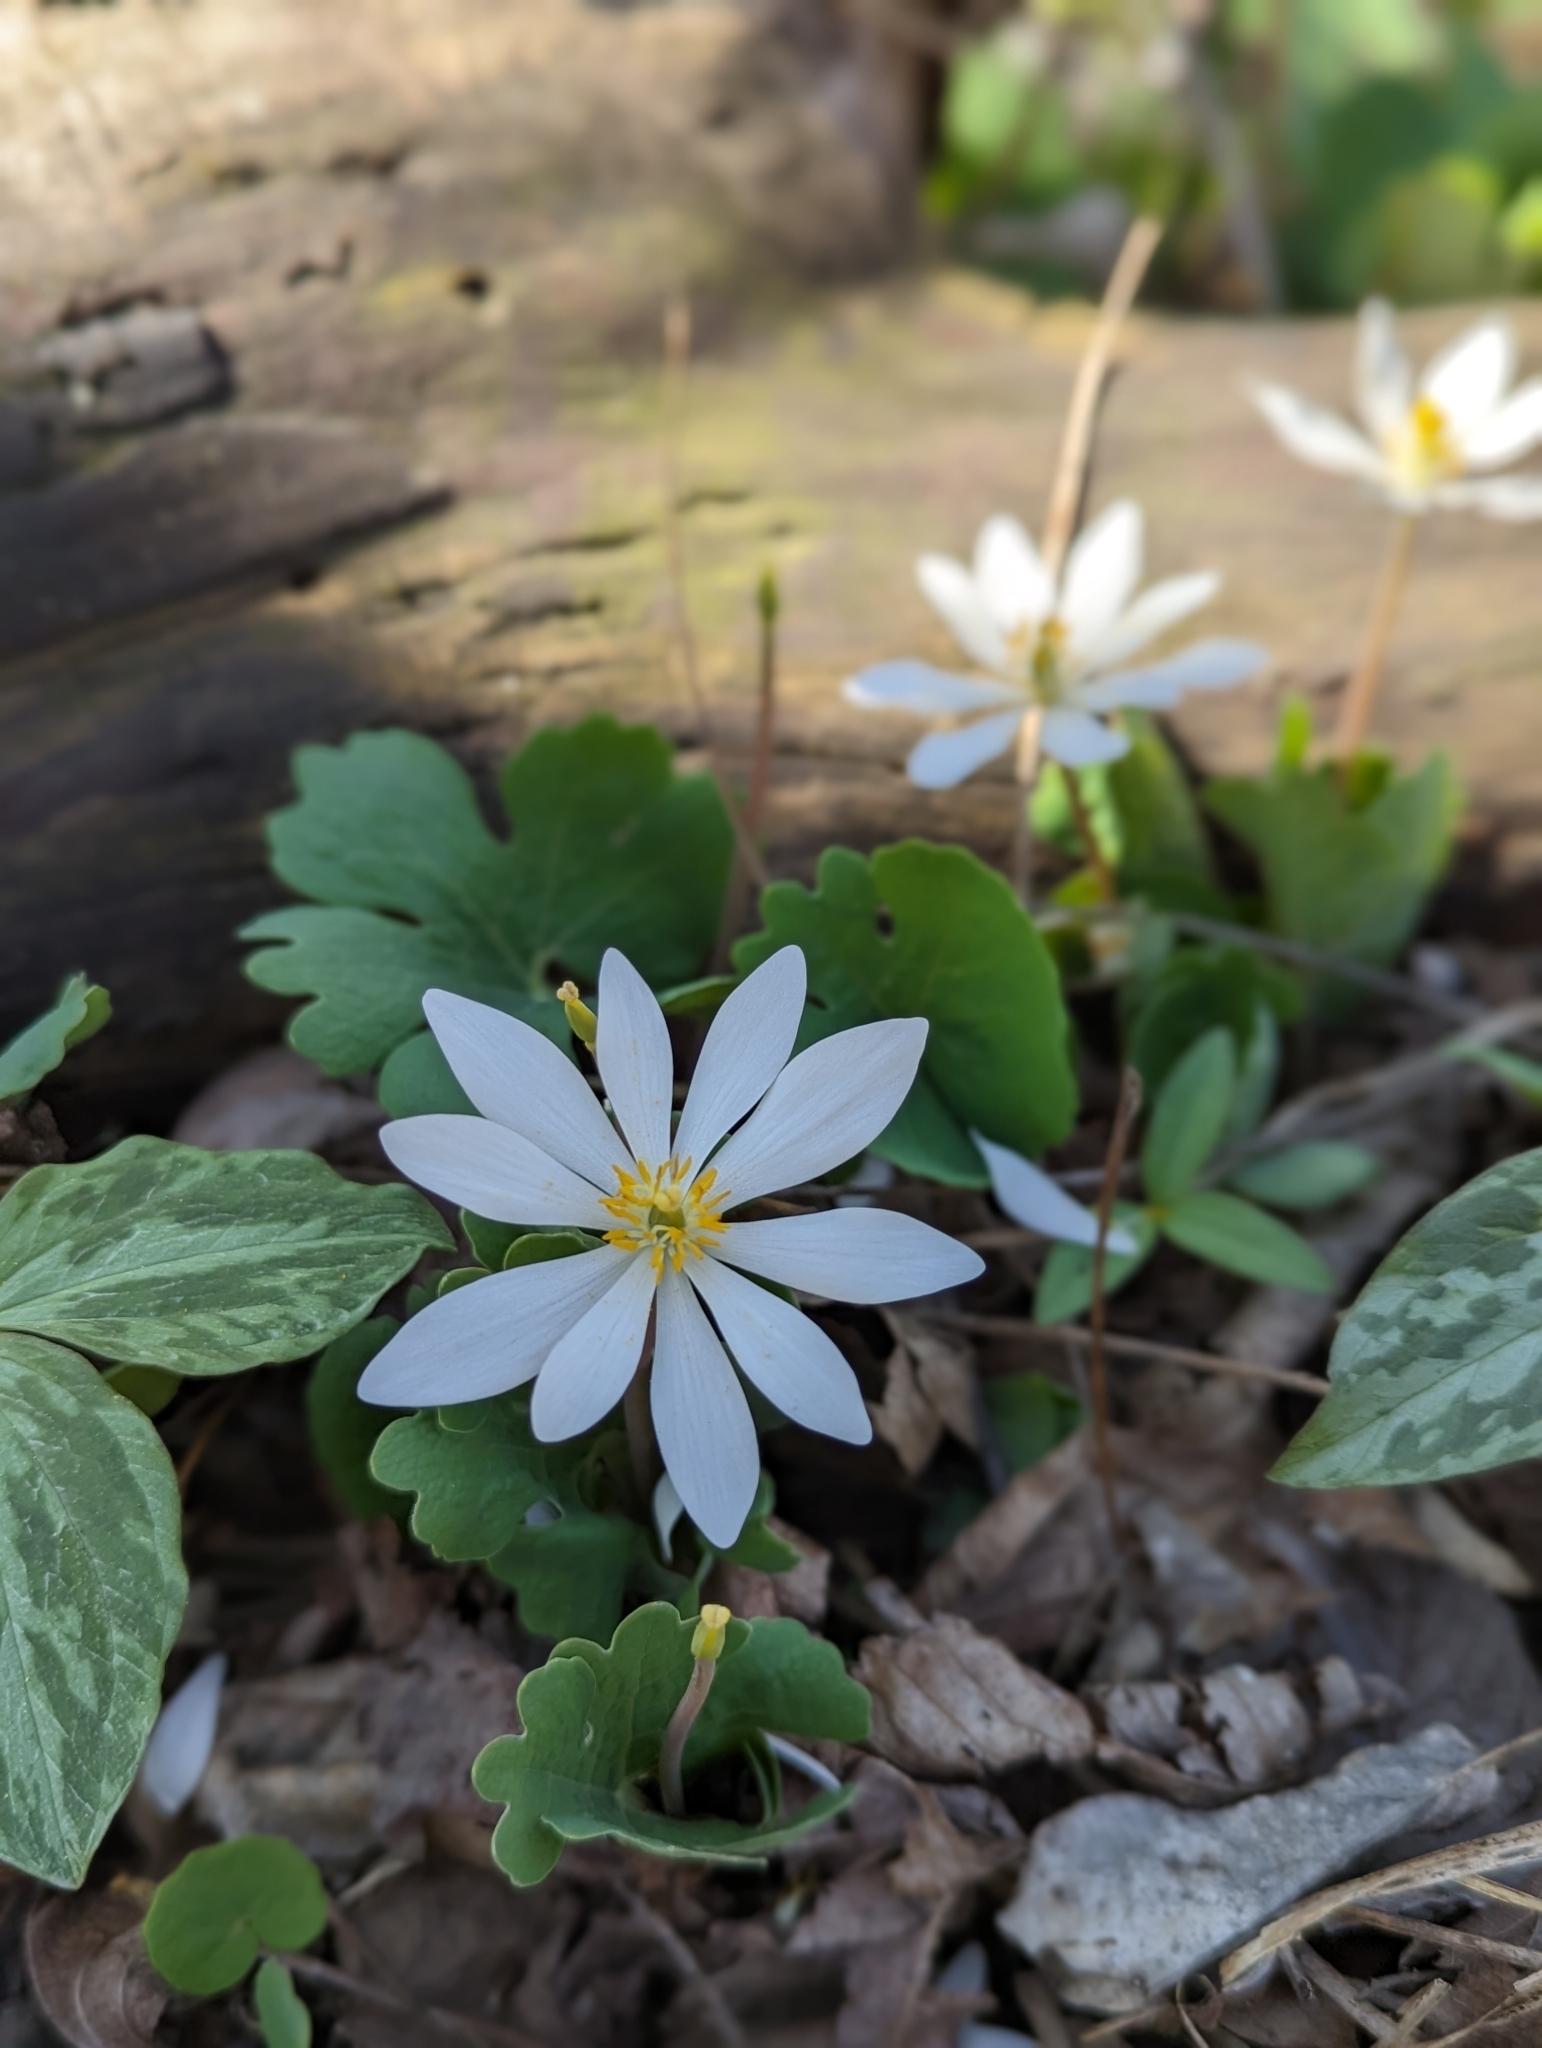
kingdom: Plantae
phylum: Tracheophyta
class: Magnoliopsida
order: Ranunculales
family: Papaveraceae
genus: Sanguinaria
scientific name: Sanguinaria canadensis
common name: Bloodroot
